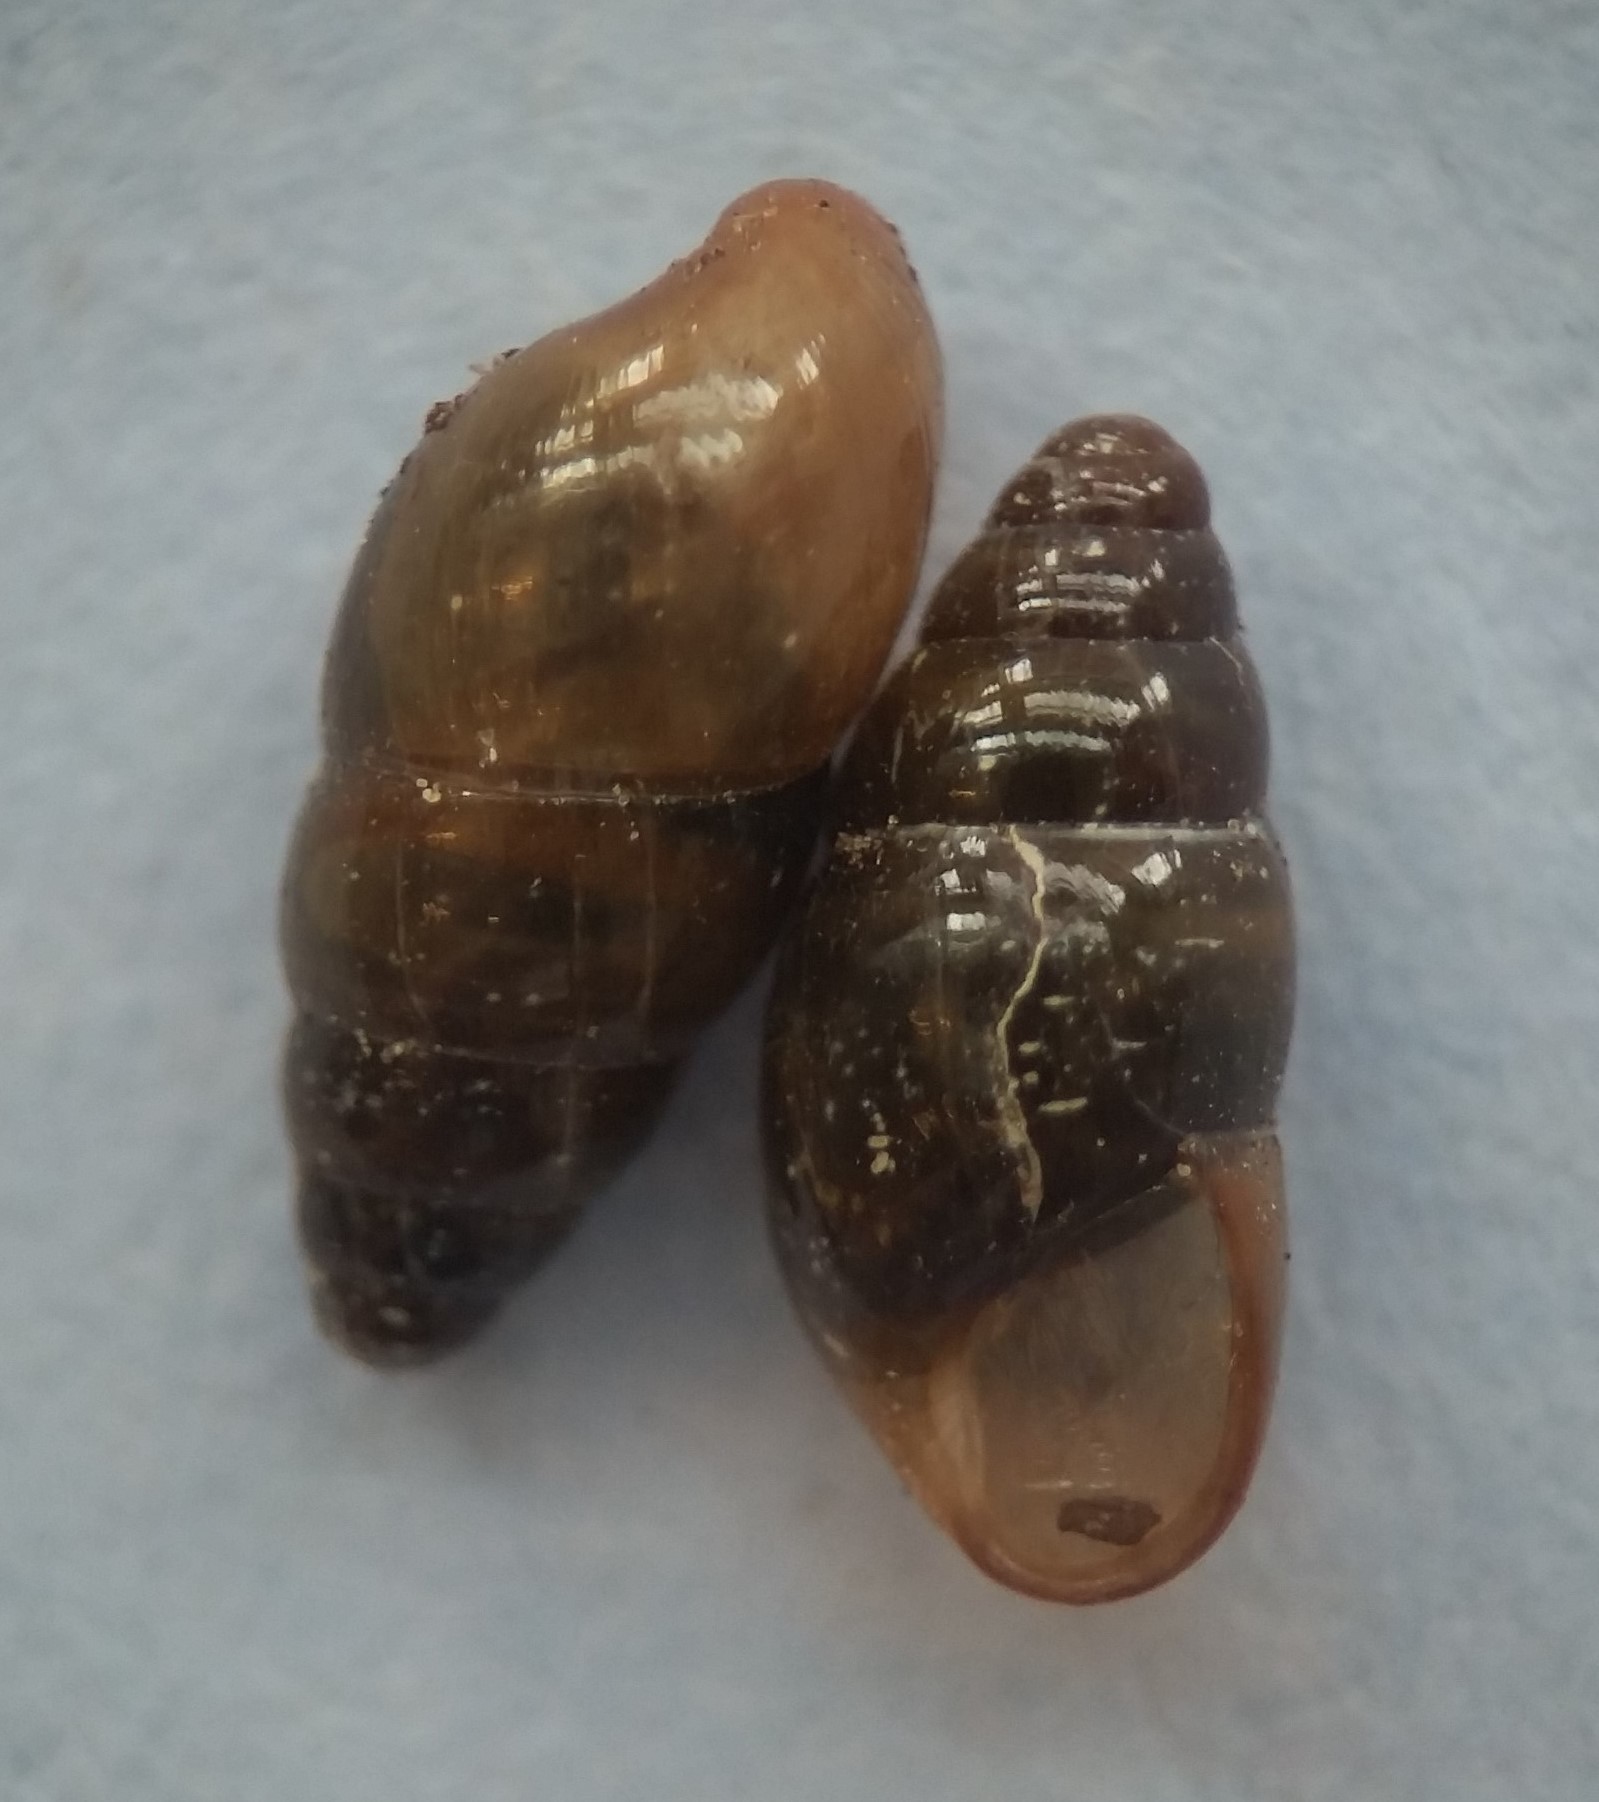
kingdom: Animalia
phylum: Mollusca
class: Gastropoda
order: Stylommatophora
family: Cochlicopidae
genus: Cochlicopa
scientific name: Cochlicopa lubrica
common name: Glossy pillar snail
